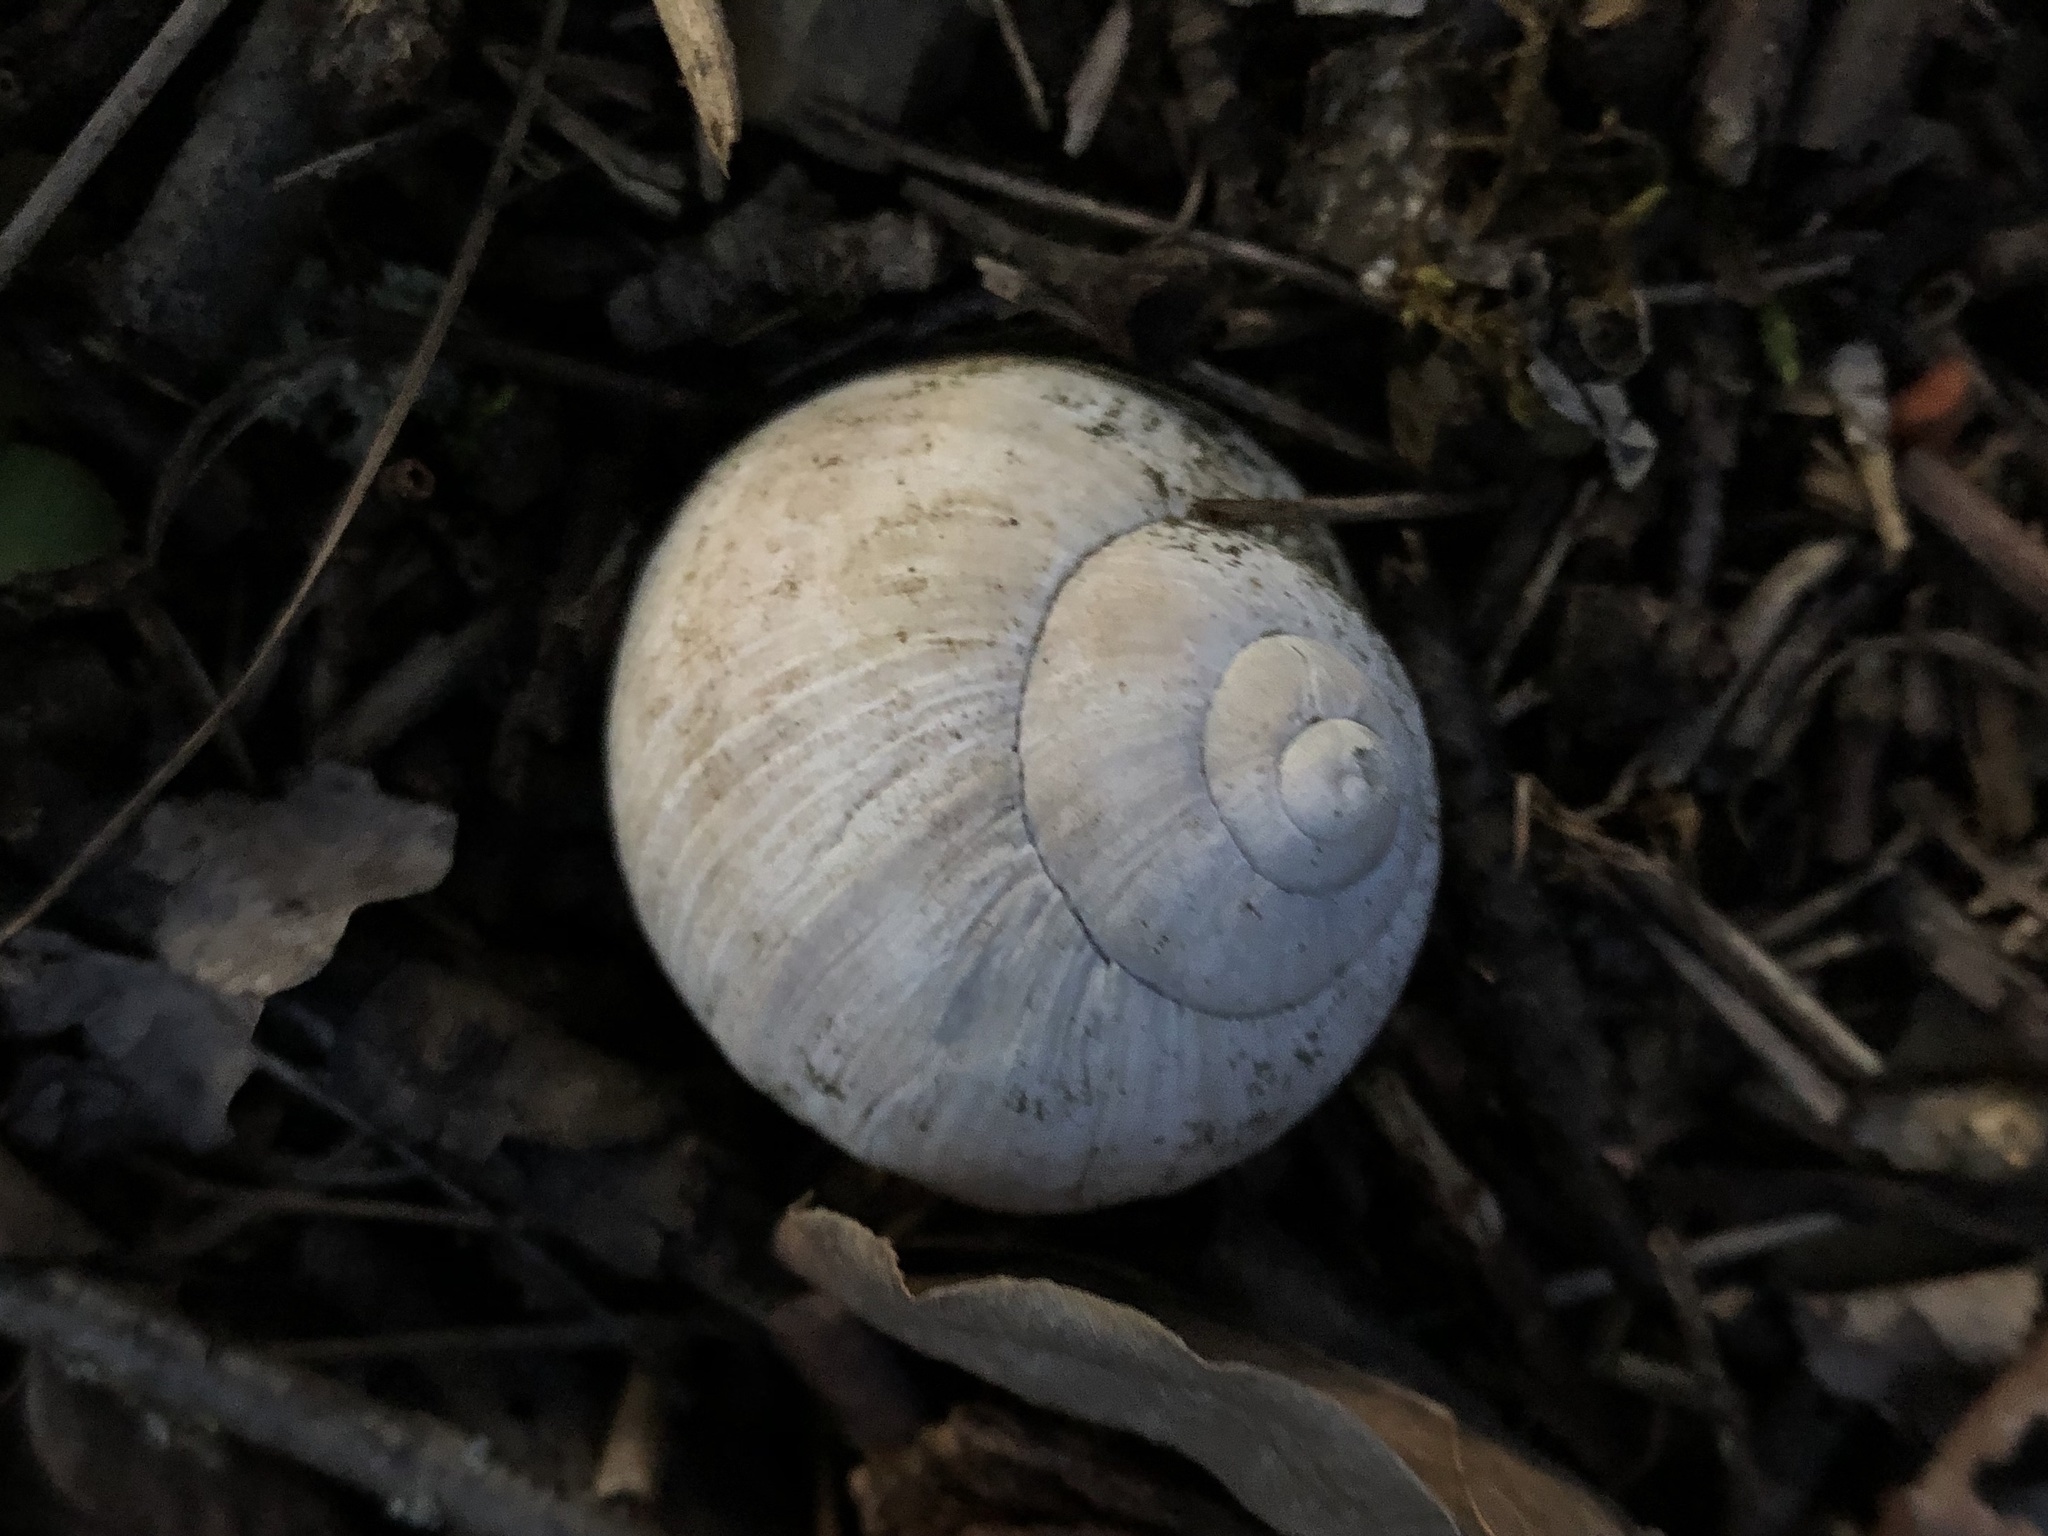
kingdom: Animalia
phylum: Mollusca
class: Gastropoda
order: Stylommatophora
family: Helicidae
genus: Helix
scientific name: Helix pomatia
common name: Roman snail
